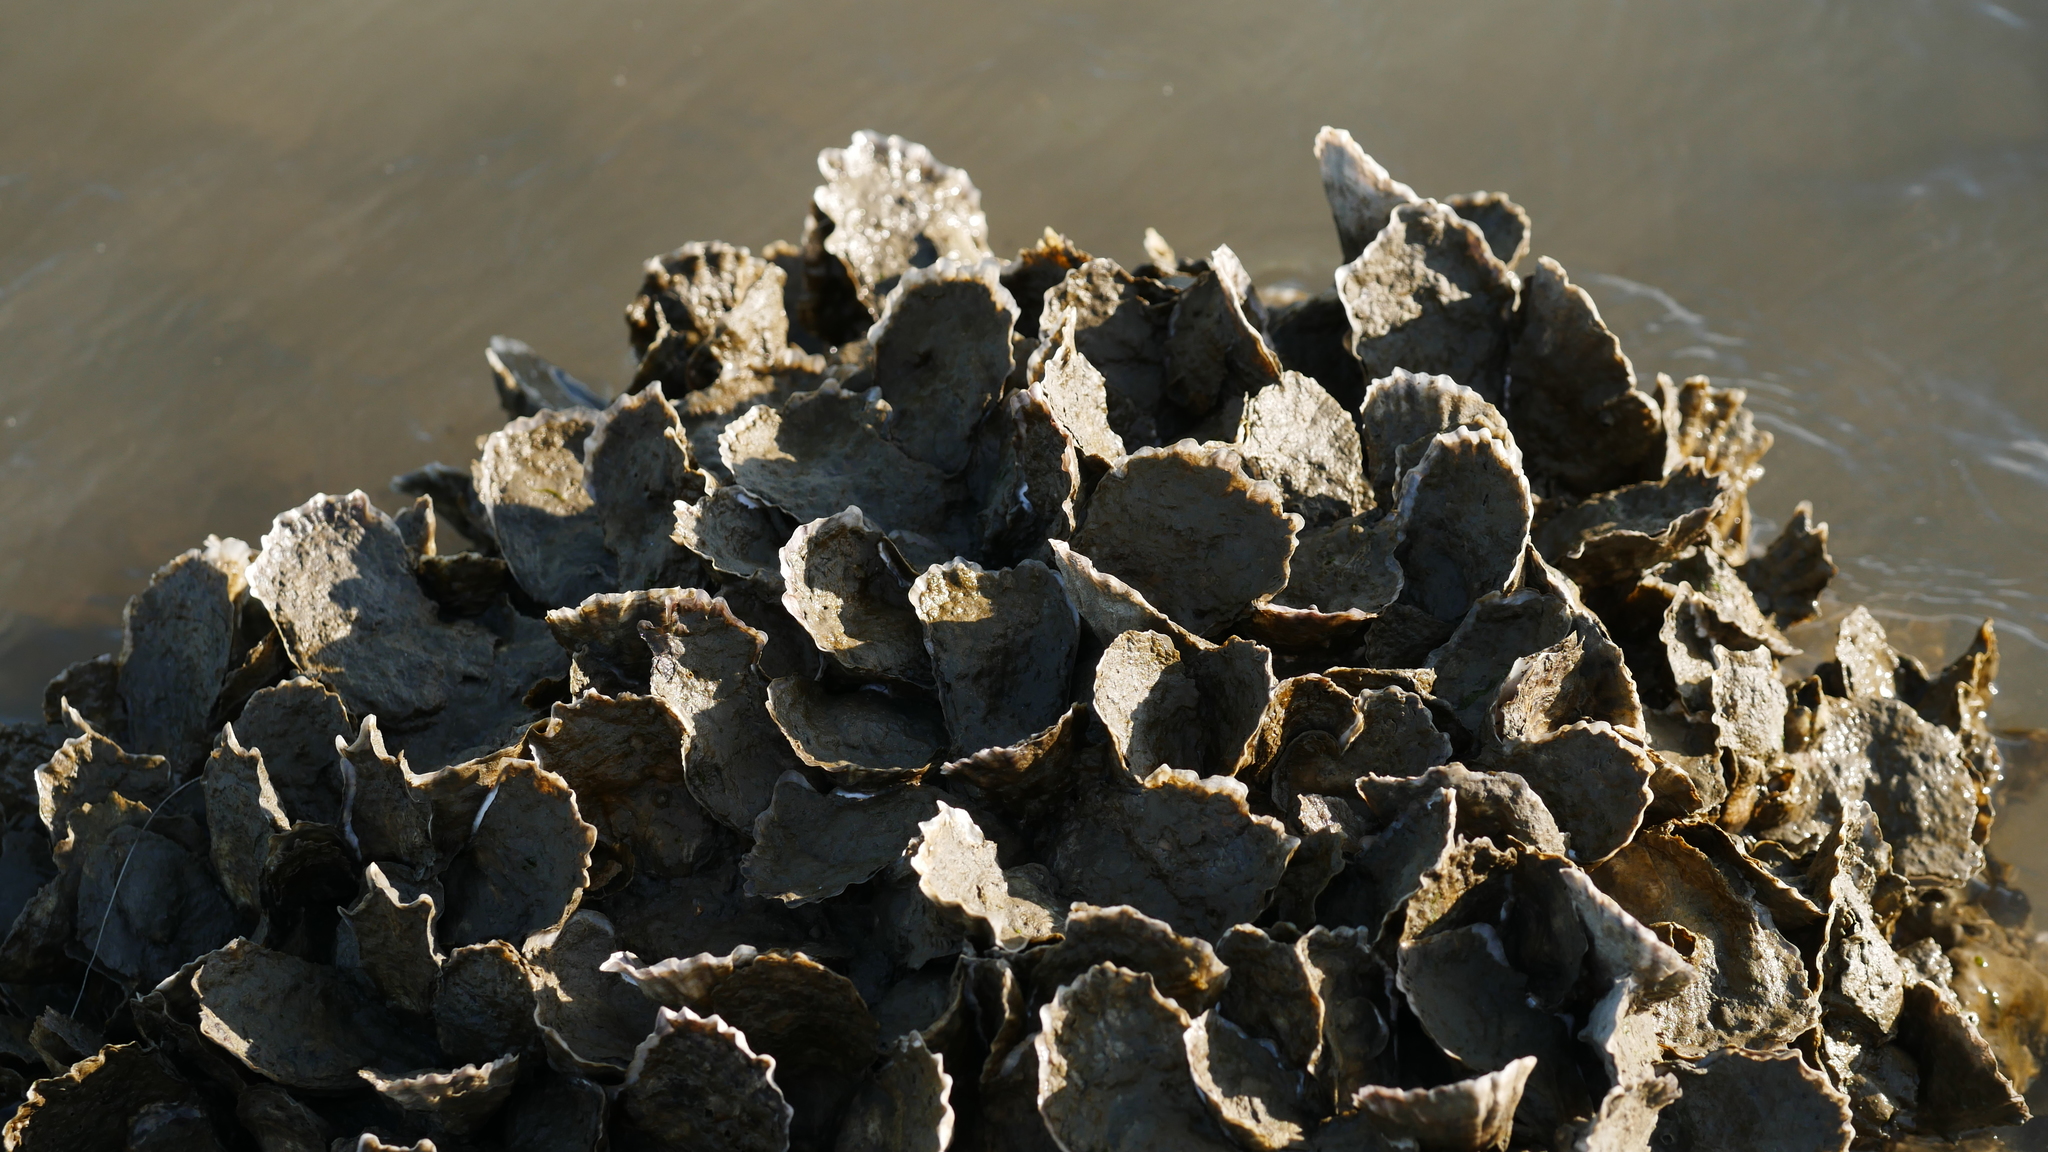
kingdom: Animalia
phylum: Mollusca
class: Bivalvia
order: Ostreida
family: Ostreidae
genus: Crassostrea
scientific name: Crassostrea virginica
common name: American oyster
